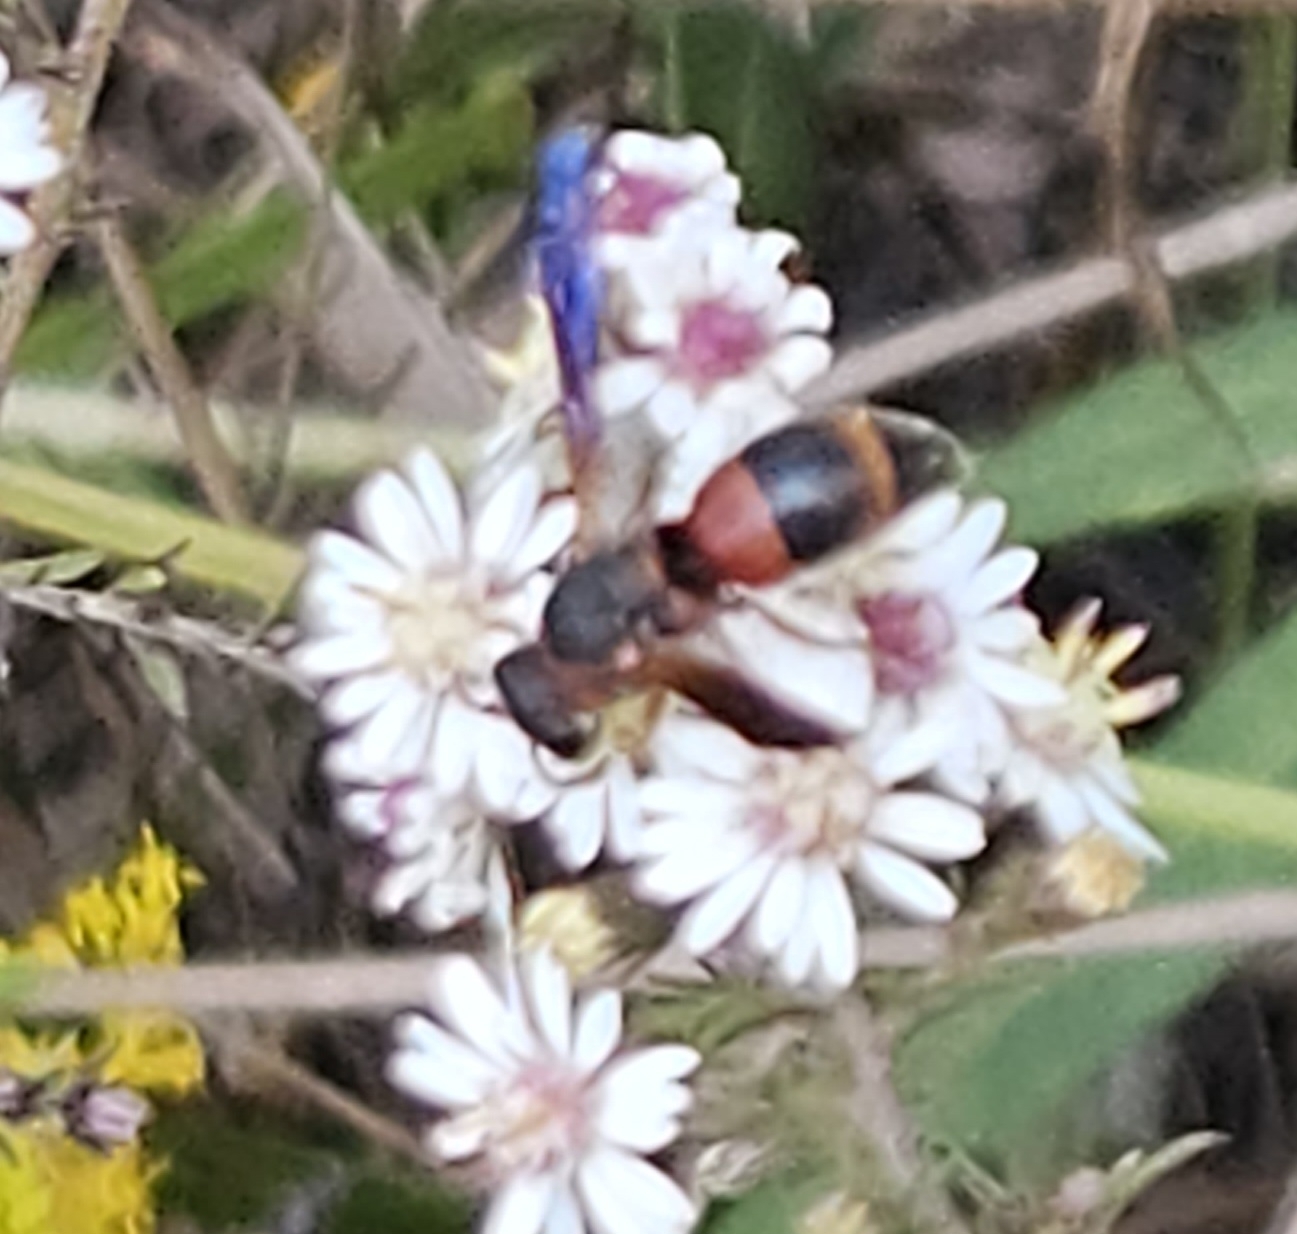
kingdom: Animalia
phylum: Arthropoda
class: Insecta
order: Hymenoptera
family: Eumenidae
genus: Pachodynerus
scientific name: Pachodynerus erynnis
